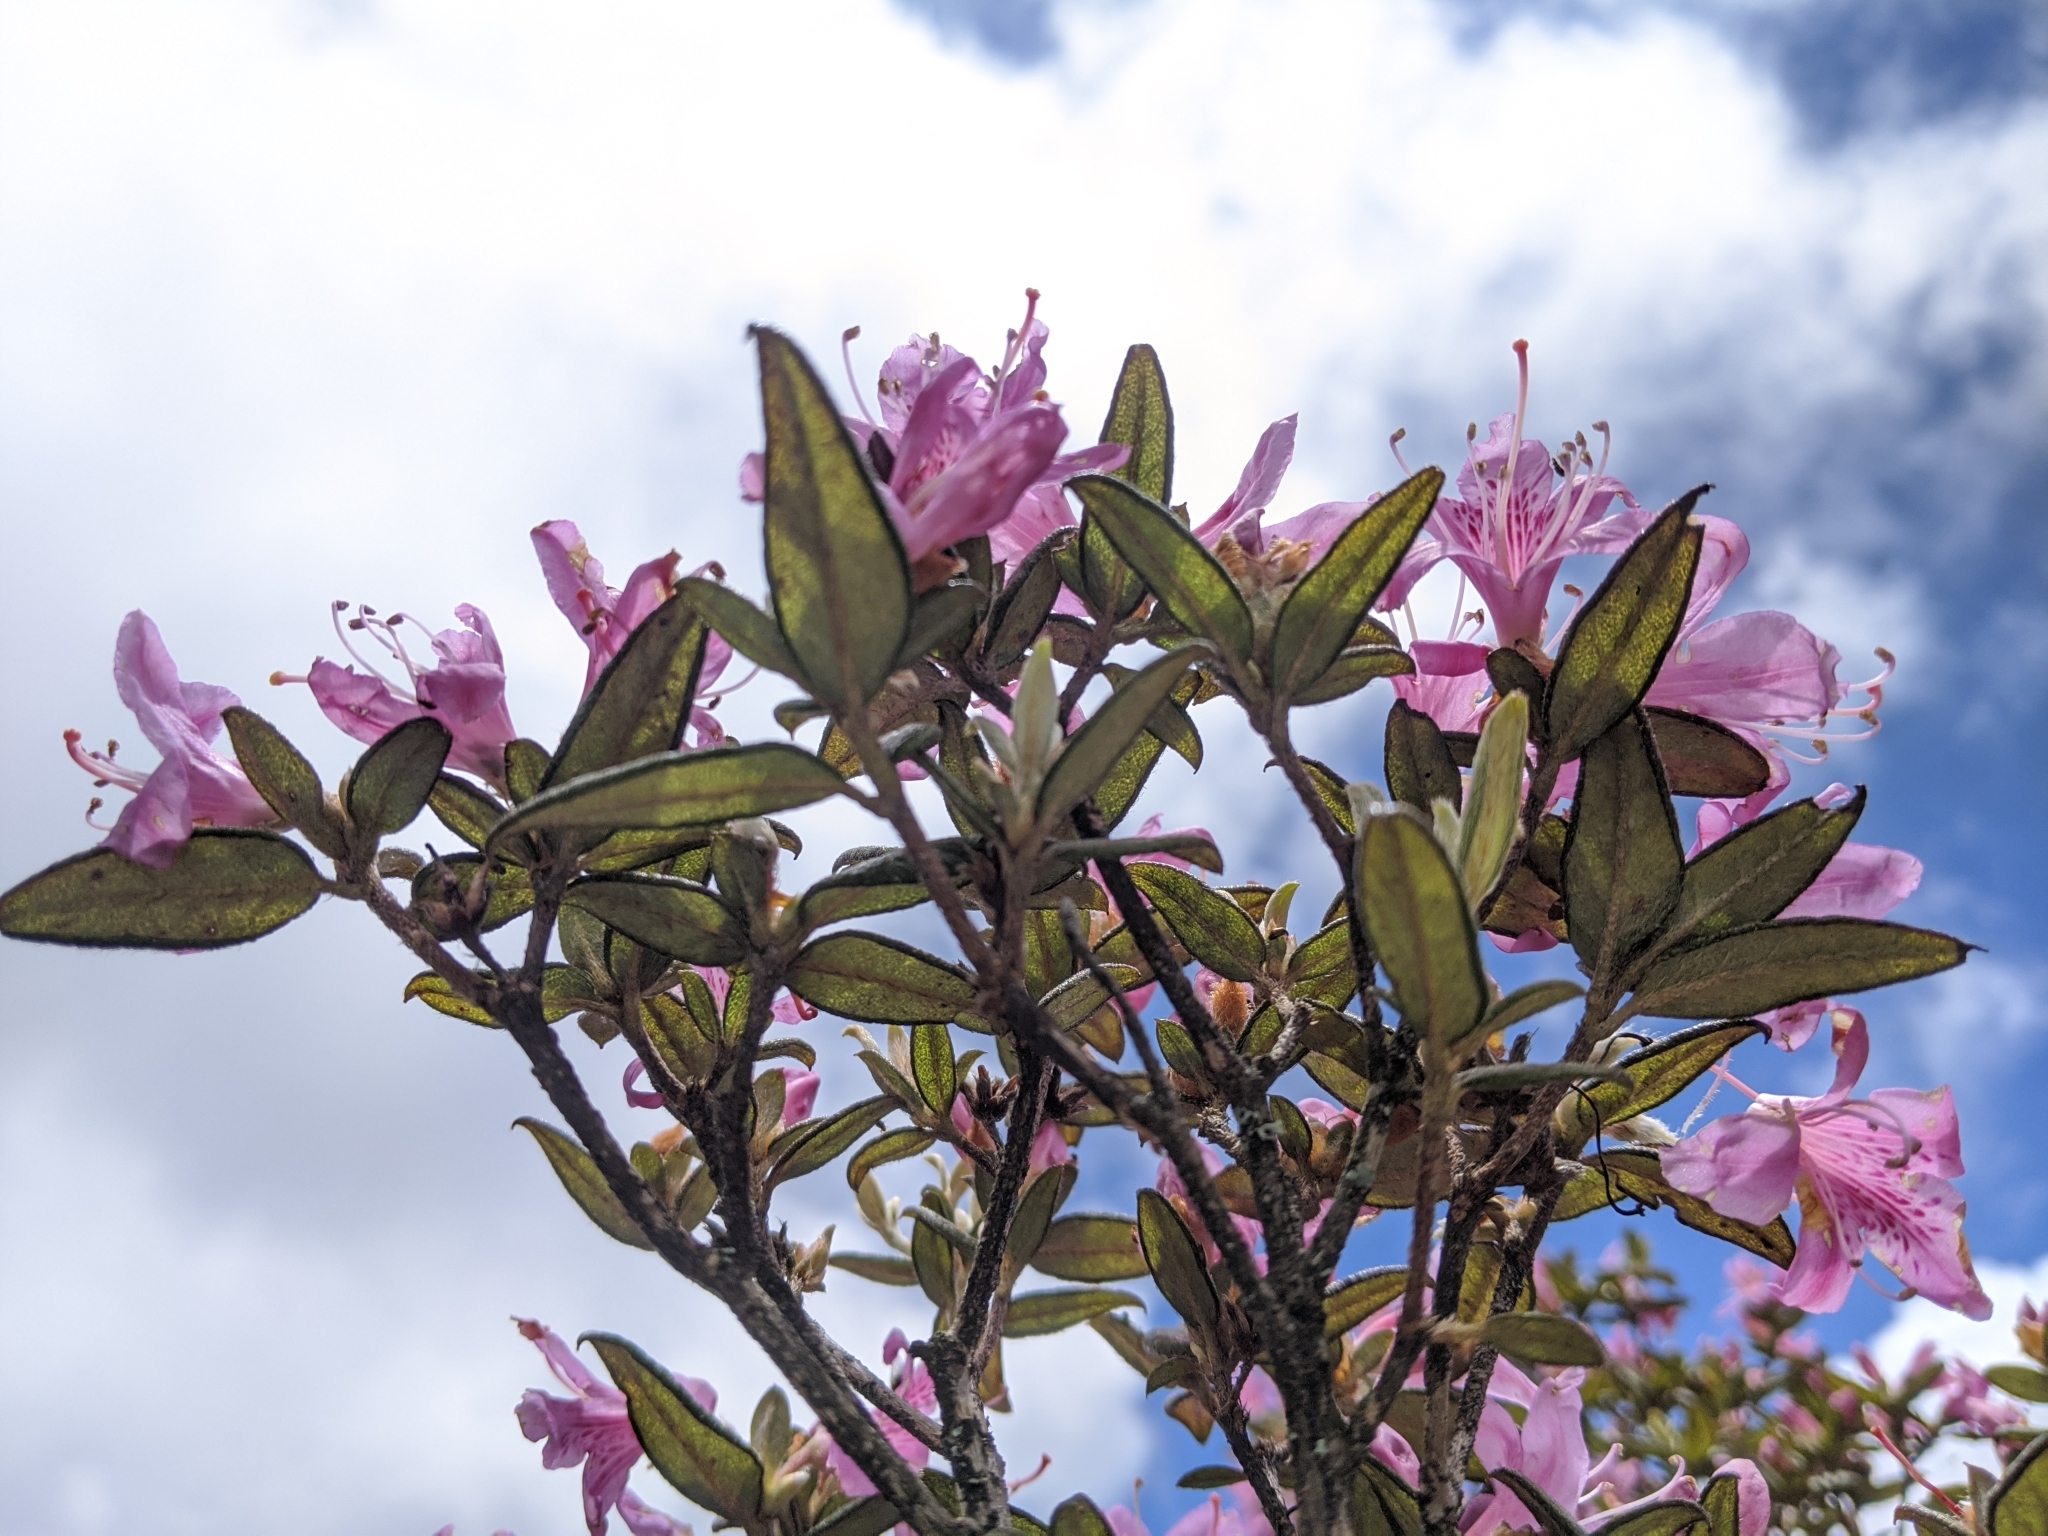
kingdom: Plantae
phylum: Tracheophyta
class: Magnoliopsida
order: Ericales
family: Ericaceae
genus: Rhododendron
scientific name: Rhododendron rubropilosum
